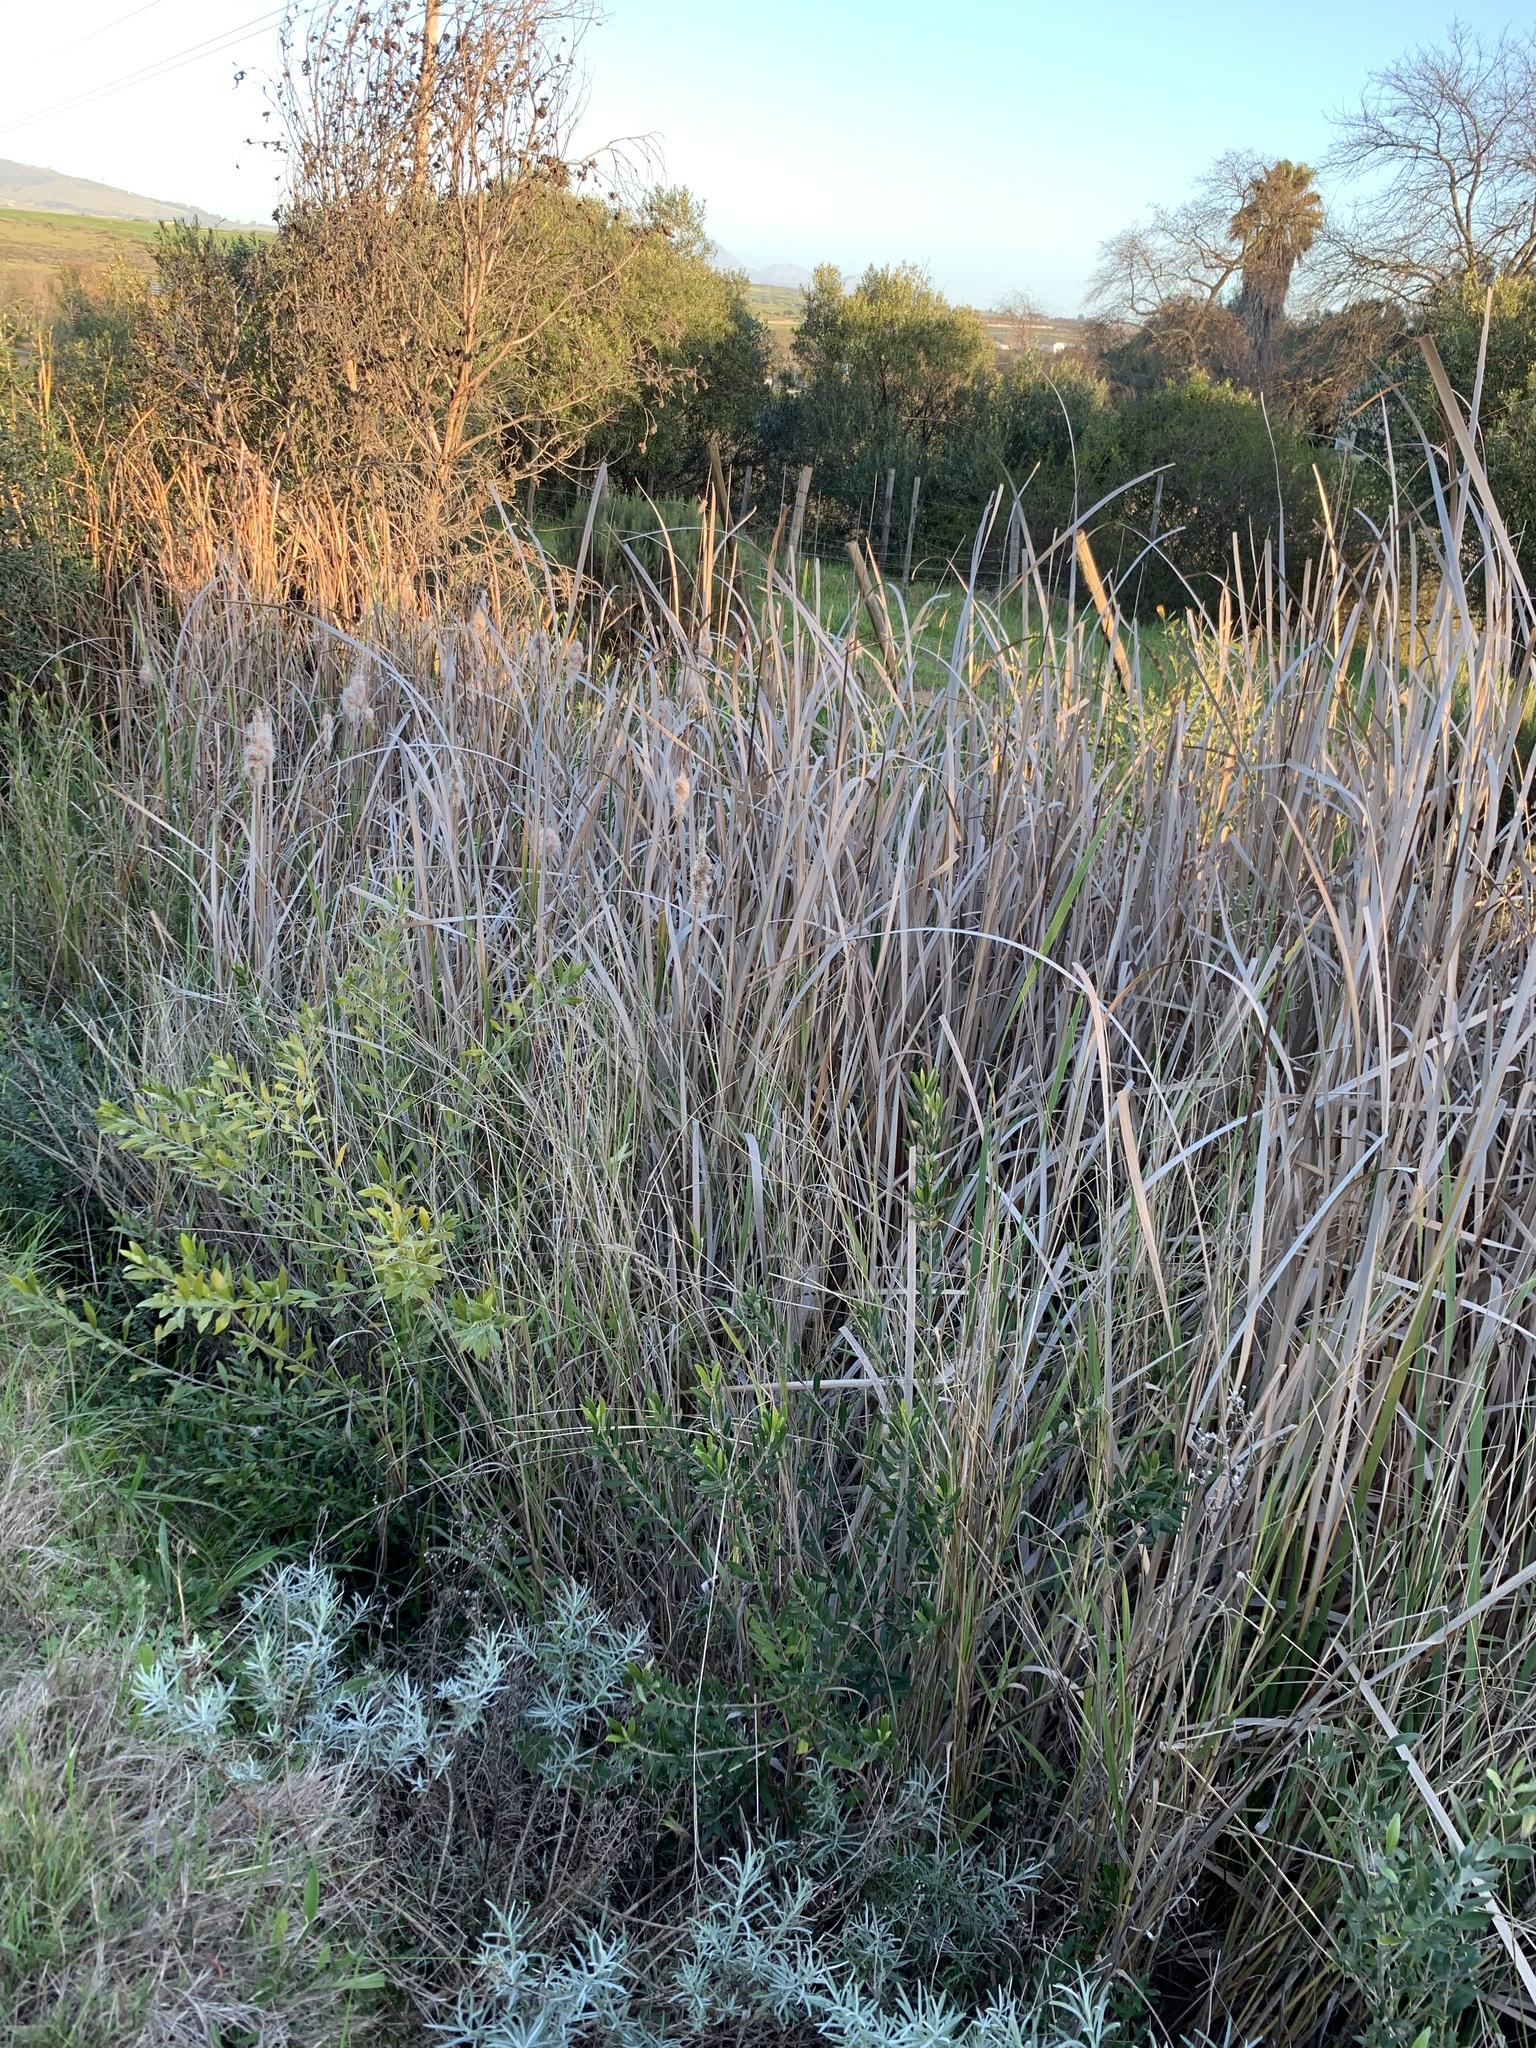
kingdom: Plantae
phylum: Tracheophyta
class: Liliopsida
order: Poales
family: Typhaceae
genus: Typha
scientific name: Typha capensis
